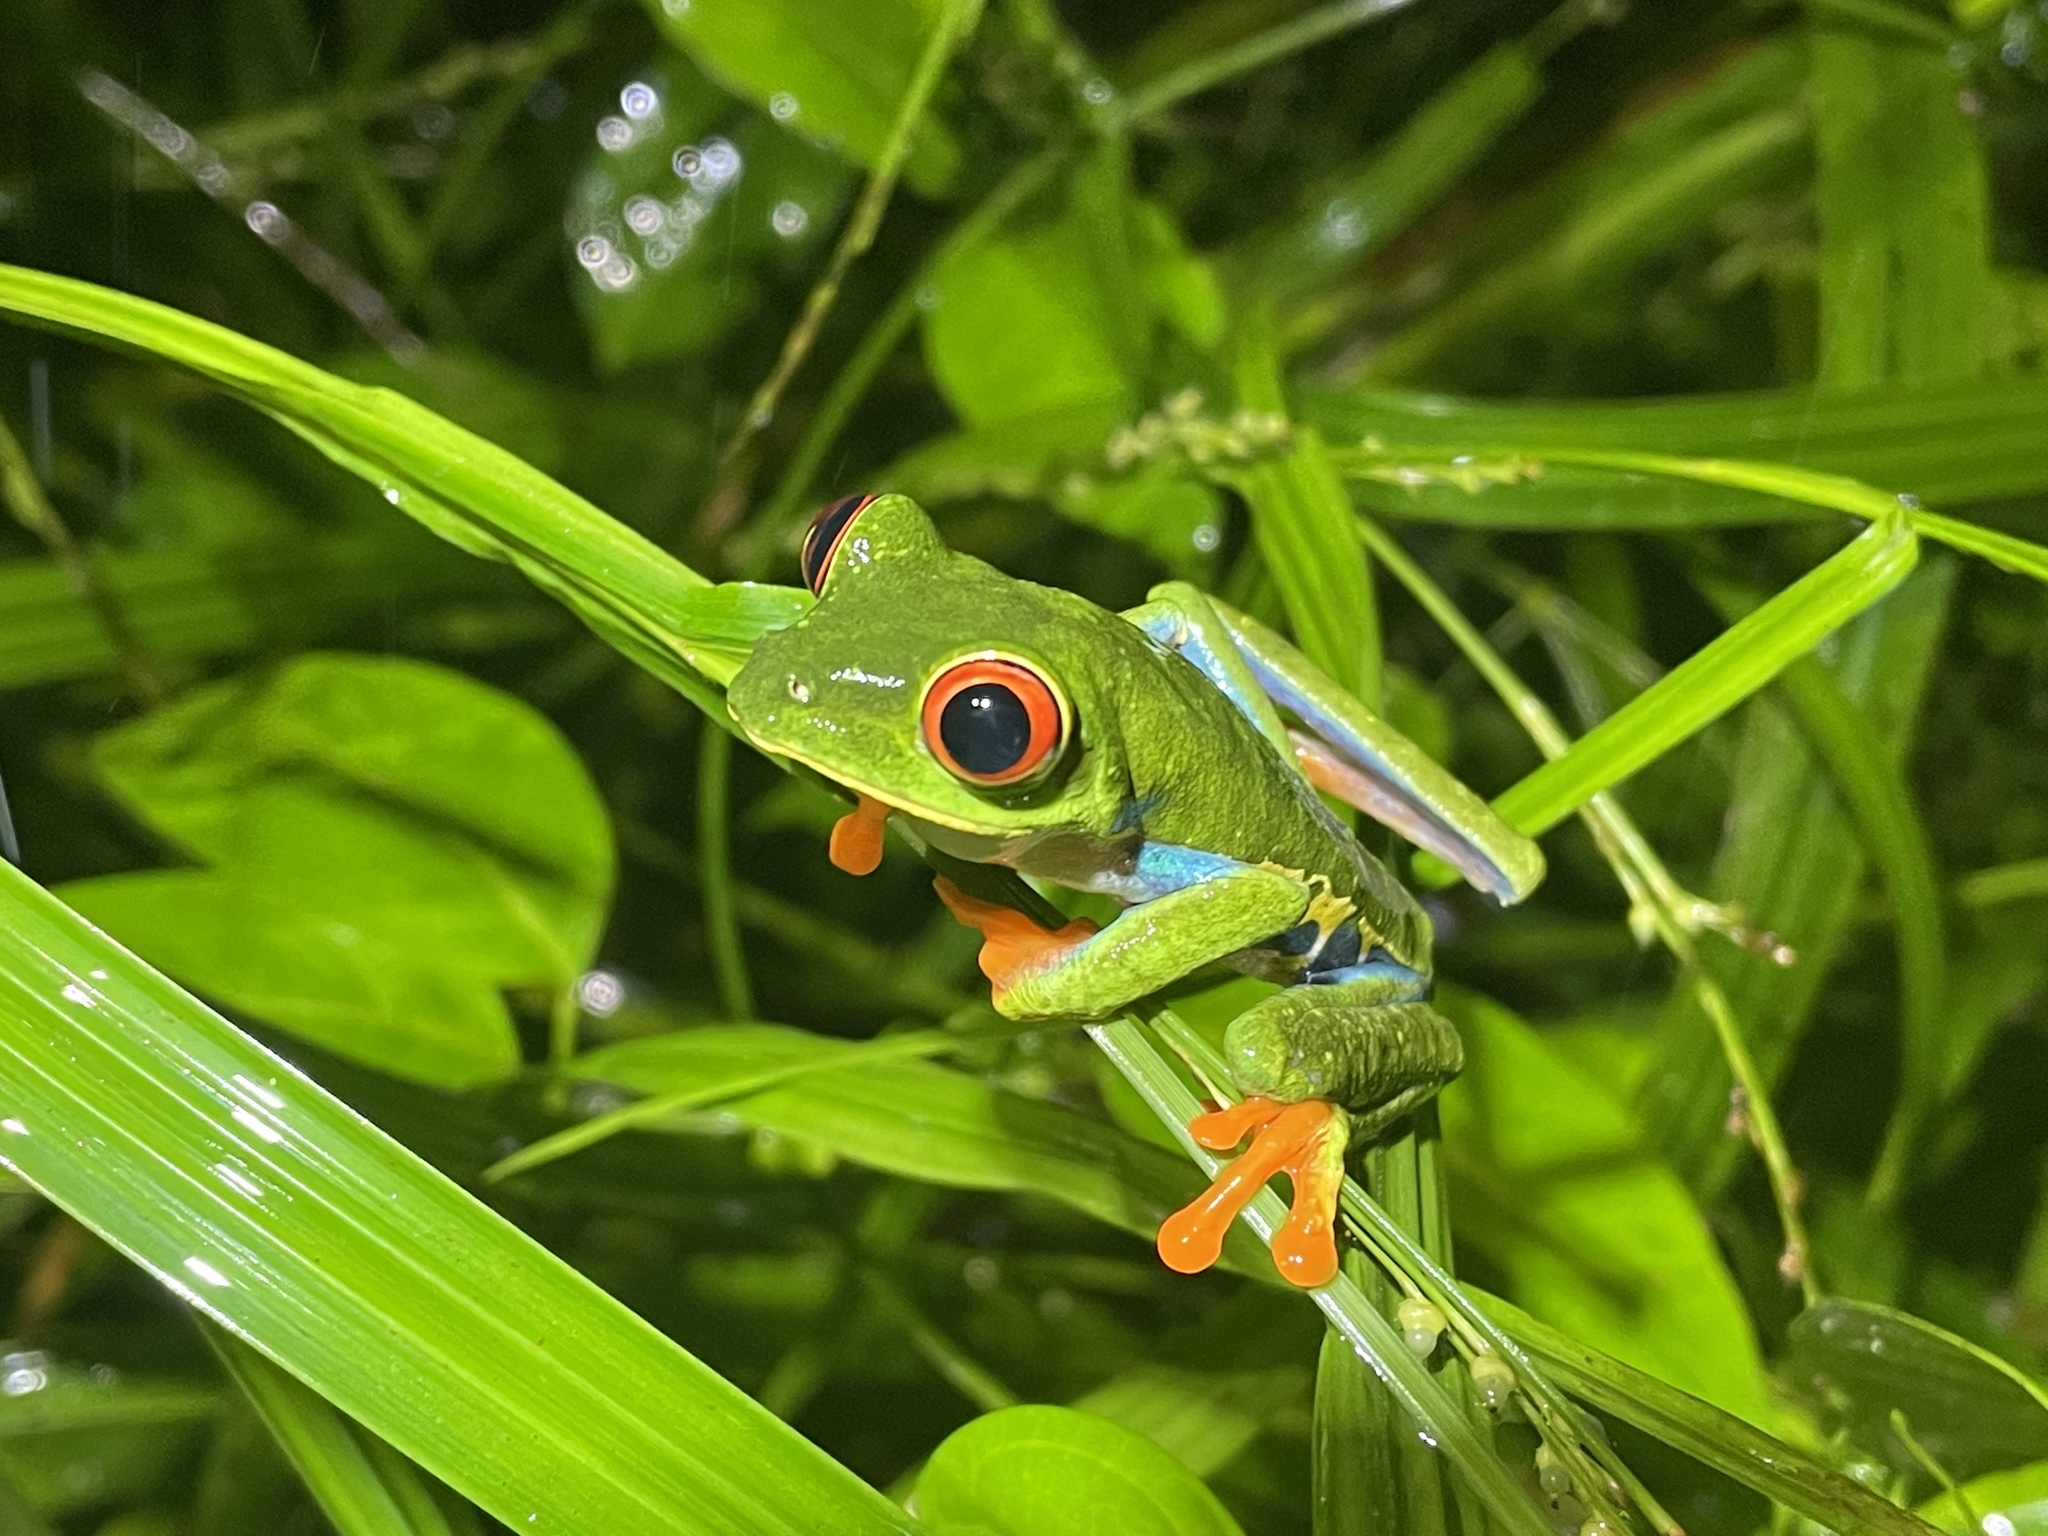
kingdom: Animalia
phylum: Chordata
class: Amphibia
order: Anura
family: Phyllomedusidae
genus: Agalychnis
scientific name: Agalychnis callidryas
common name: Red-eyed treefrog
